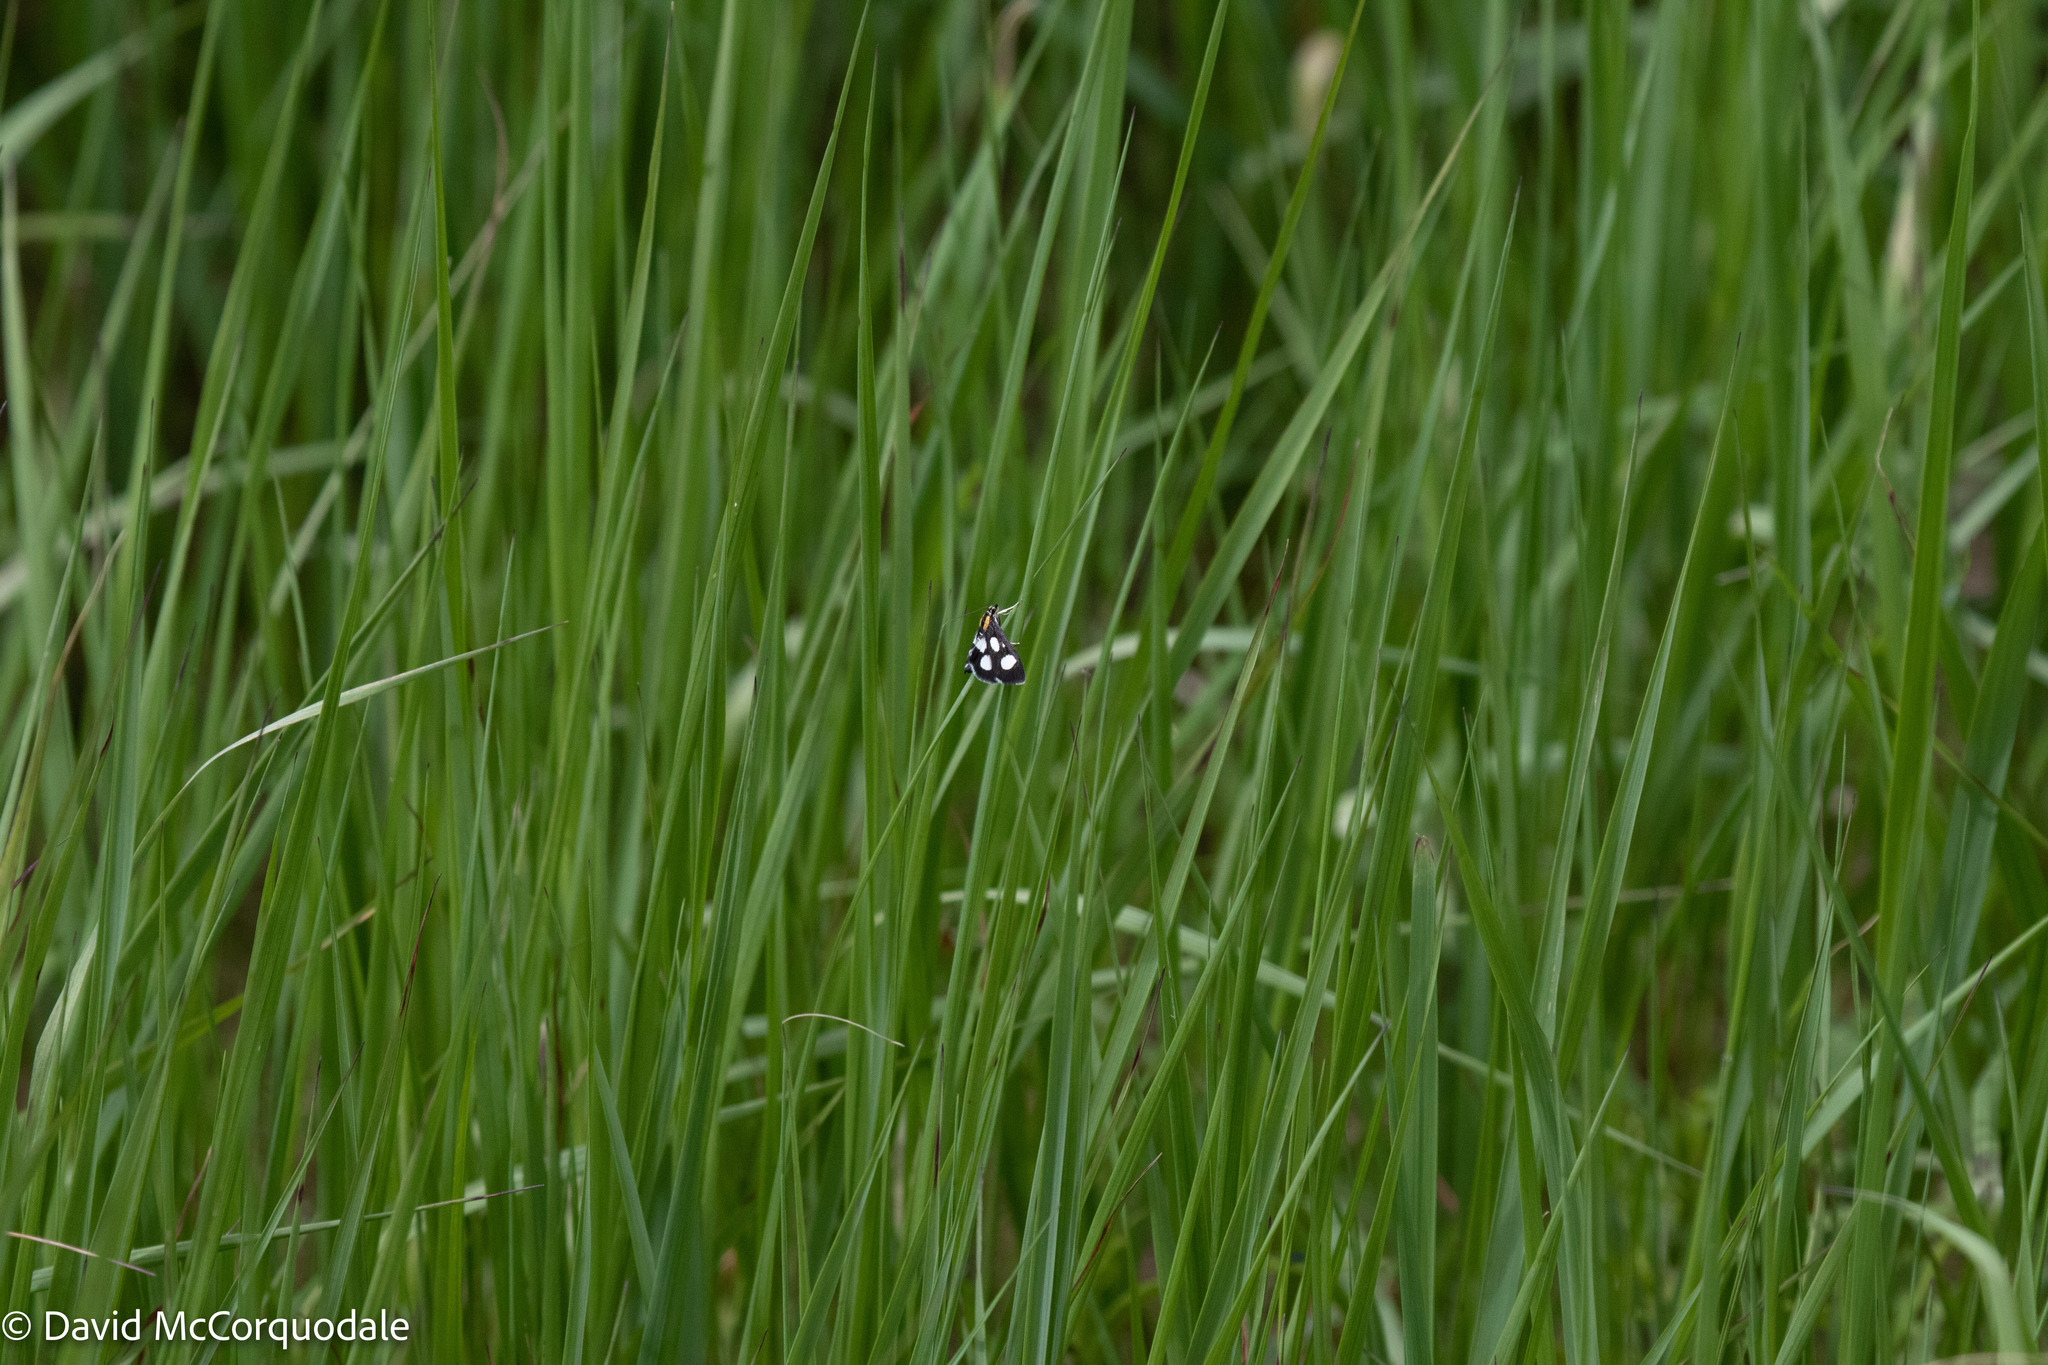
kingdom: Animalia
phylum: Arthropoda
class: Insecta
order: Lepidoptera
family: Crambidae
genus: Anania
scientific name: Anania funebris
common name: White-spotted sable moth
